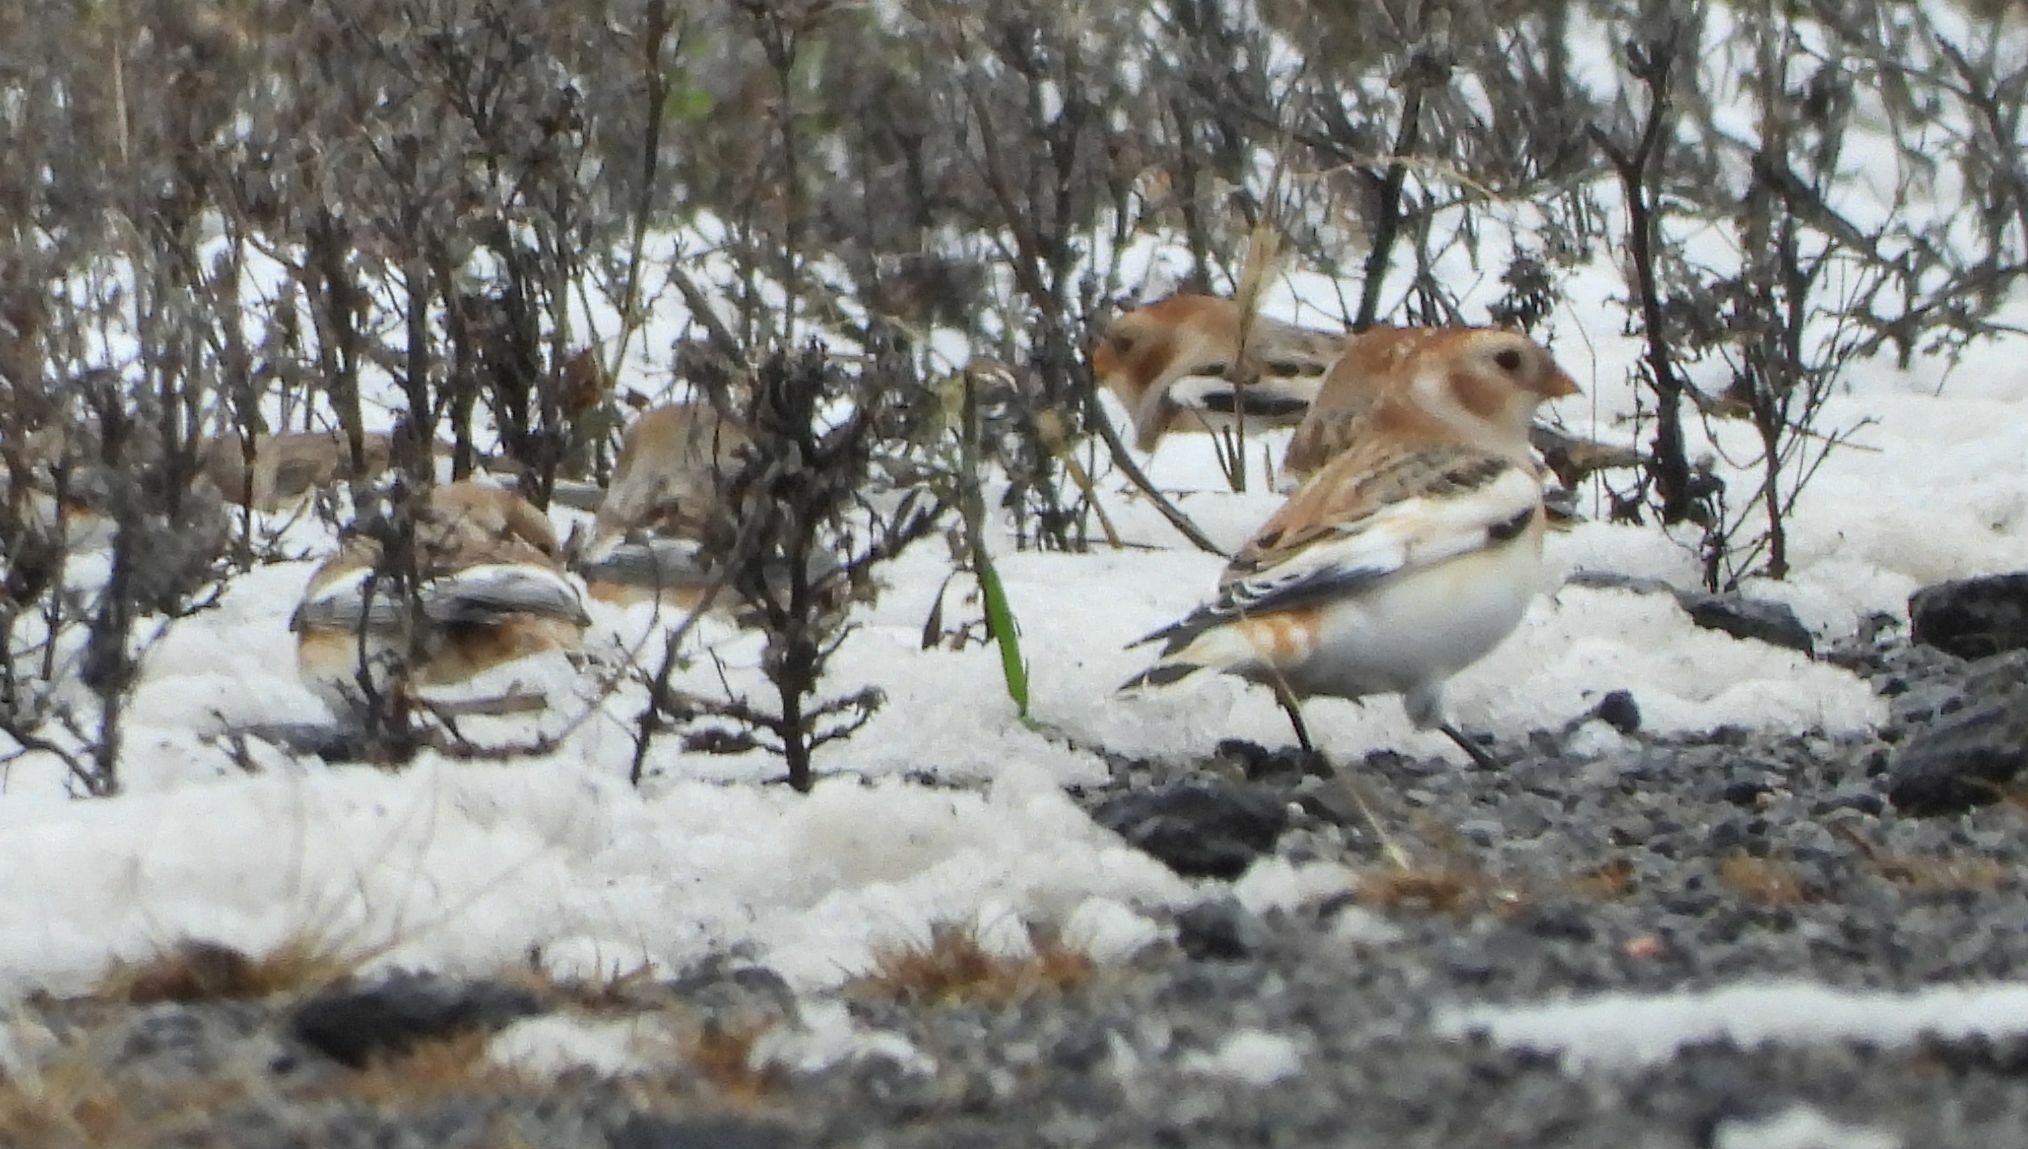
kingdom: Animalia
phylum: Chordata
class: Aves
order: Passeriformes
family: Calcariidae
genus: Plectrophenax
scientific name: Plectrophenax nivalis
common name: Snow bunting
